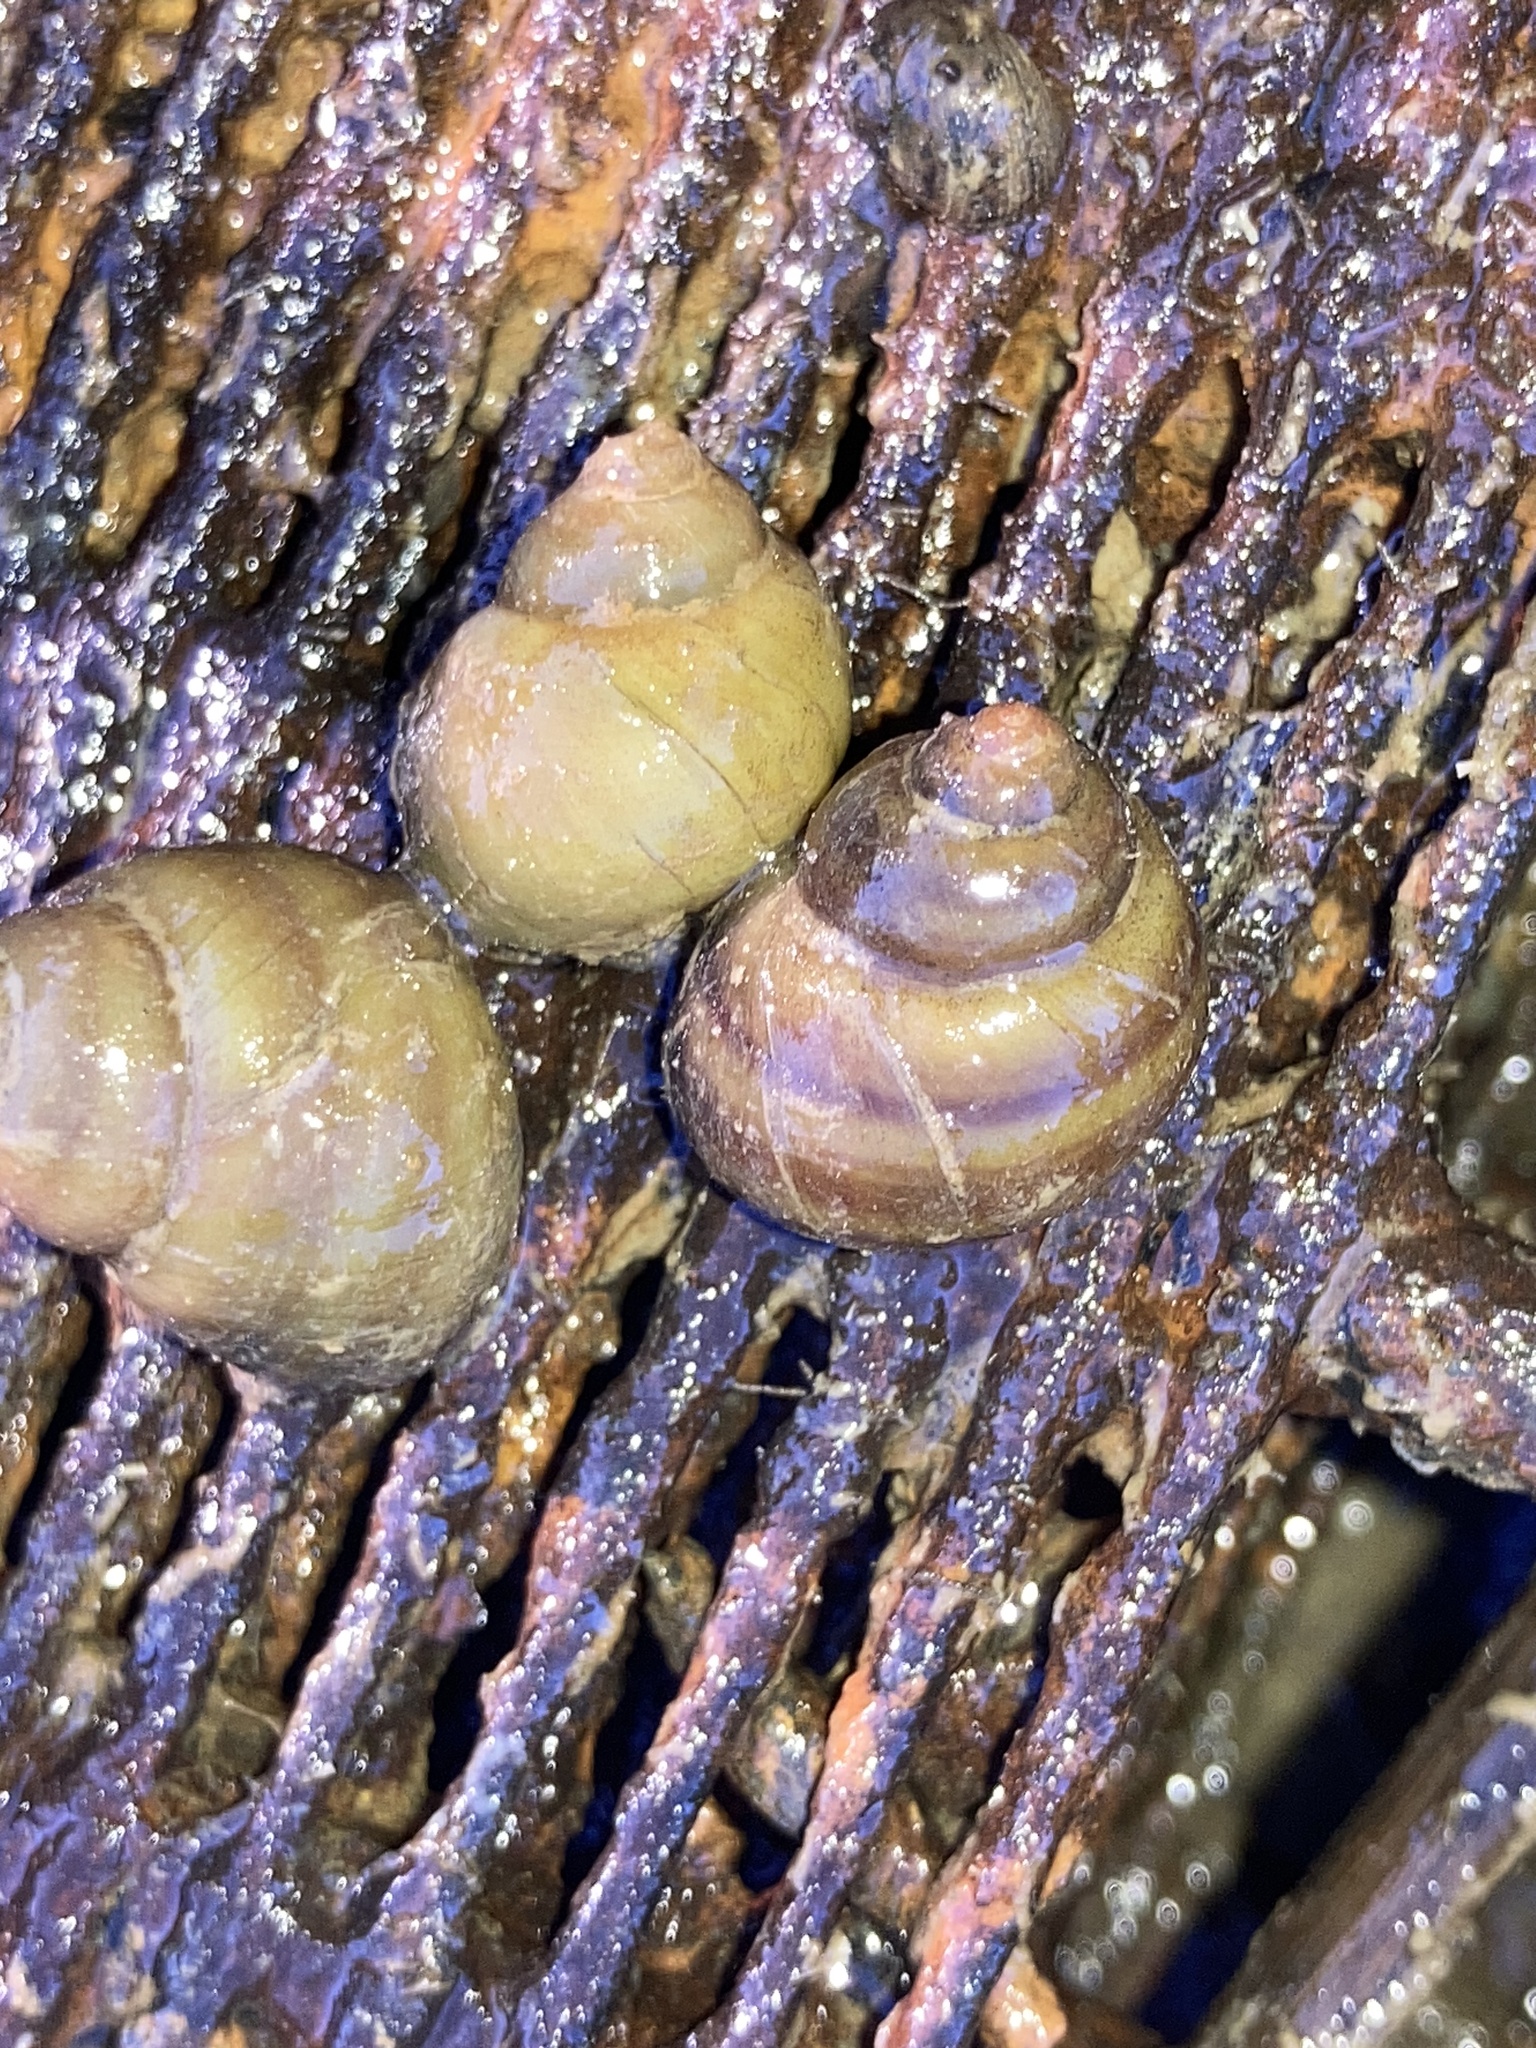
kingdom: Animalia
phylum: Mollusca
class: Gastropoda
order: Architaenioglossa
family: Viviparidae
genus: Cipangopaludina
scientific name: Cipangopaludina chinensis
